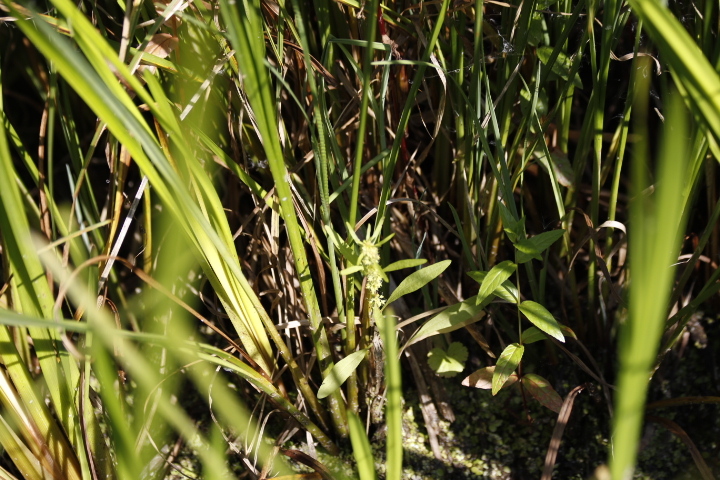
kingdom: Plantae
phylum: Tracheophyta
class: Magnoliopsida
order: Caryophyllales
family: Polygonaceae
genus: Rumex
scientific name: Rumex maritimus
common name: Golden dock
